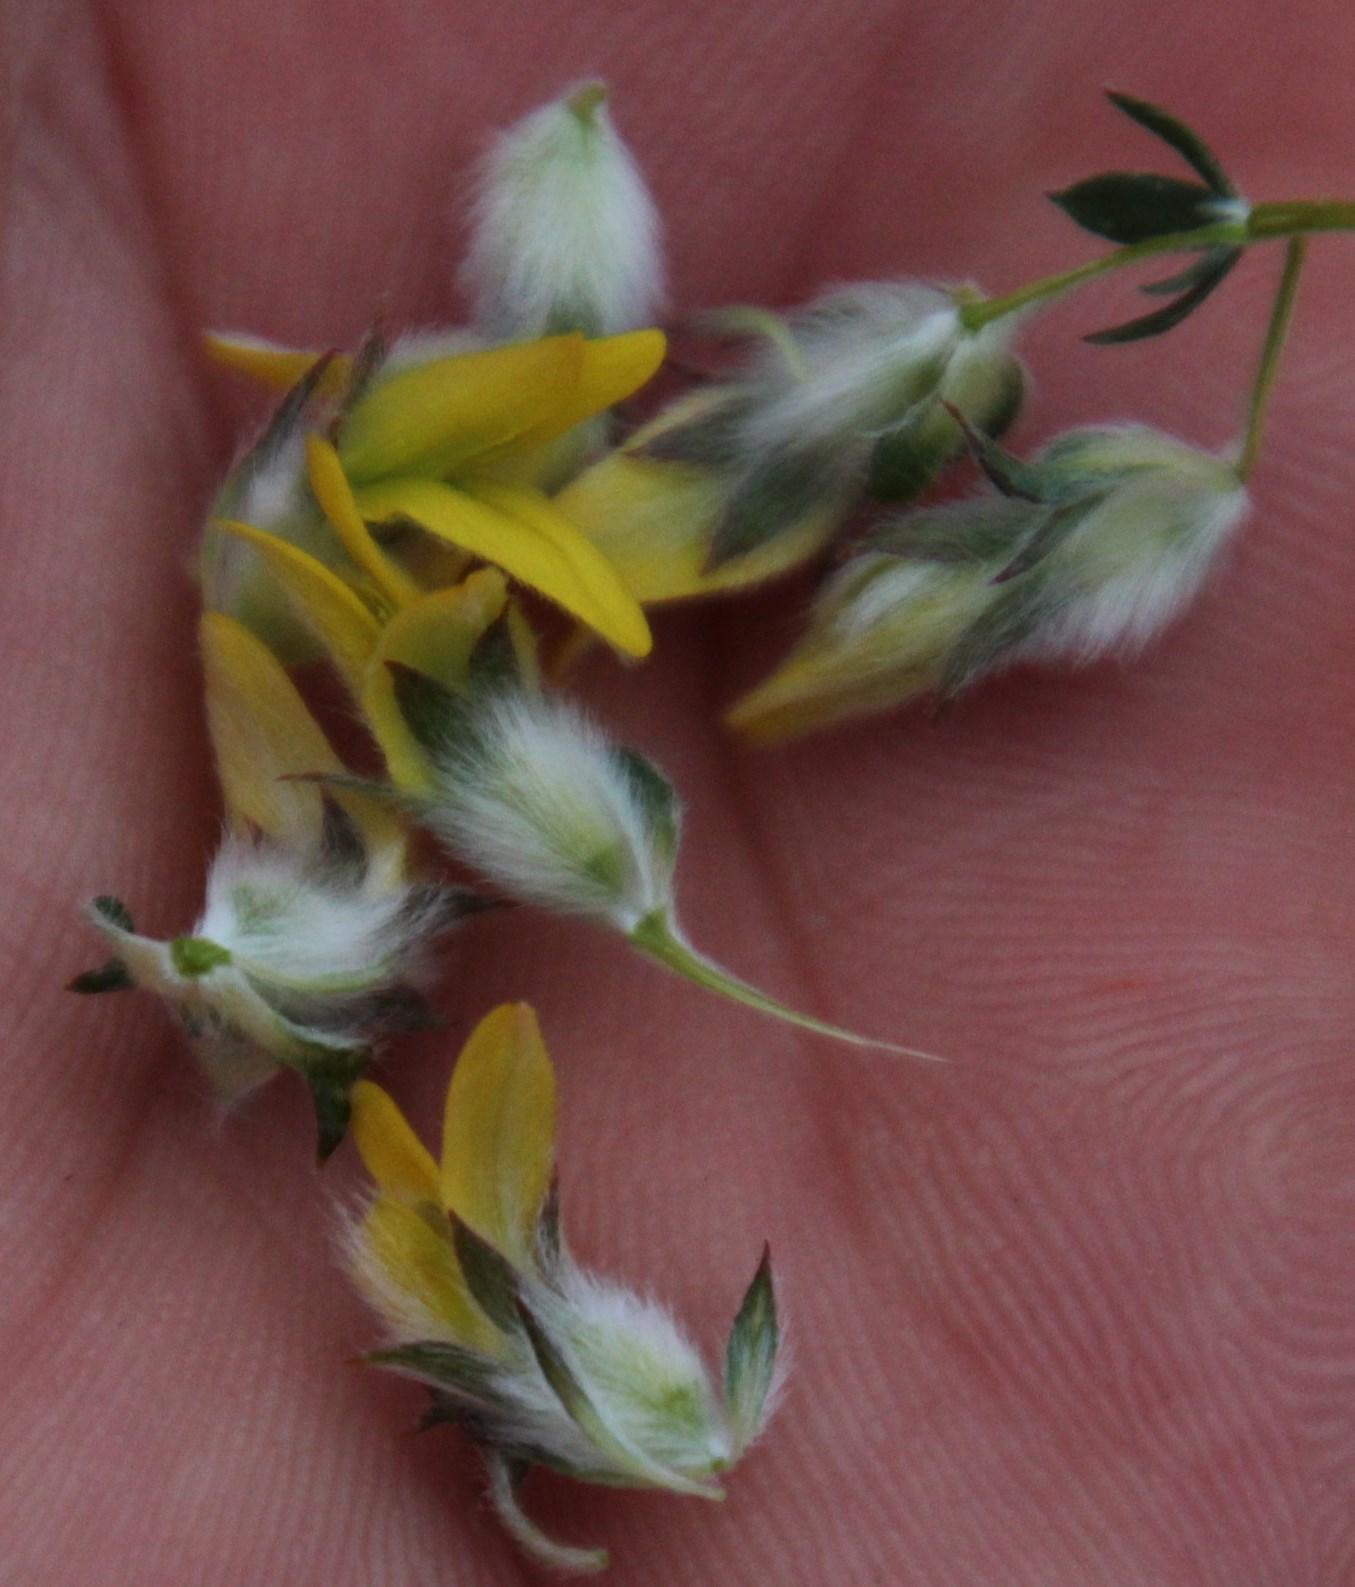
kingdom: Plantae
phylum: Tracheophyta
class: Magnoliopsida
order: Fabales
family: Fabaceae
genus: Aspalathus
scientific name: Aspalathus quinquefolia
